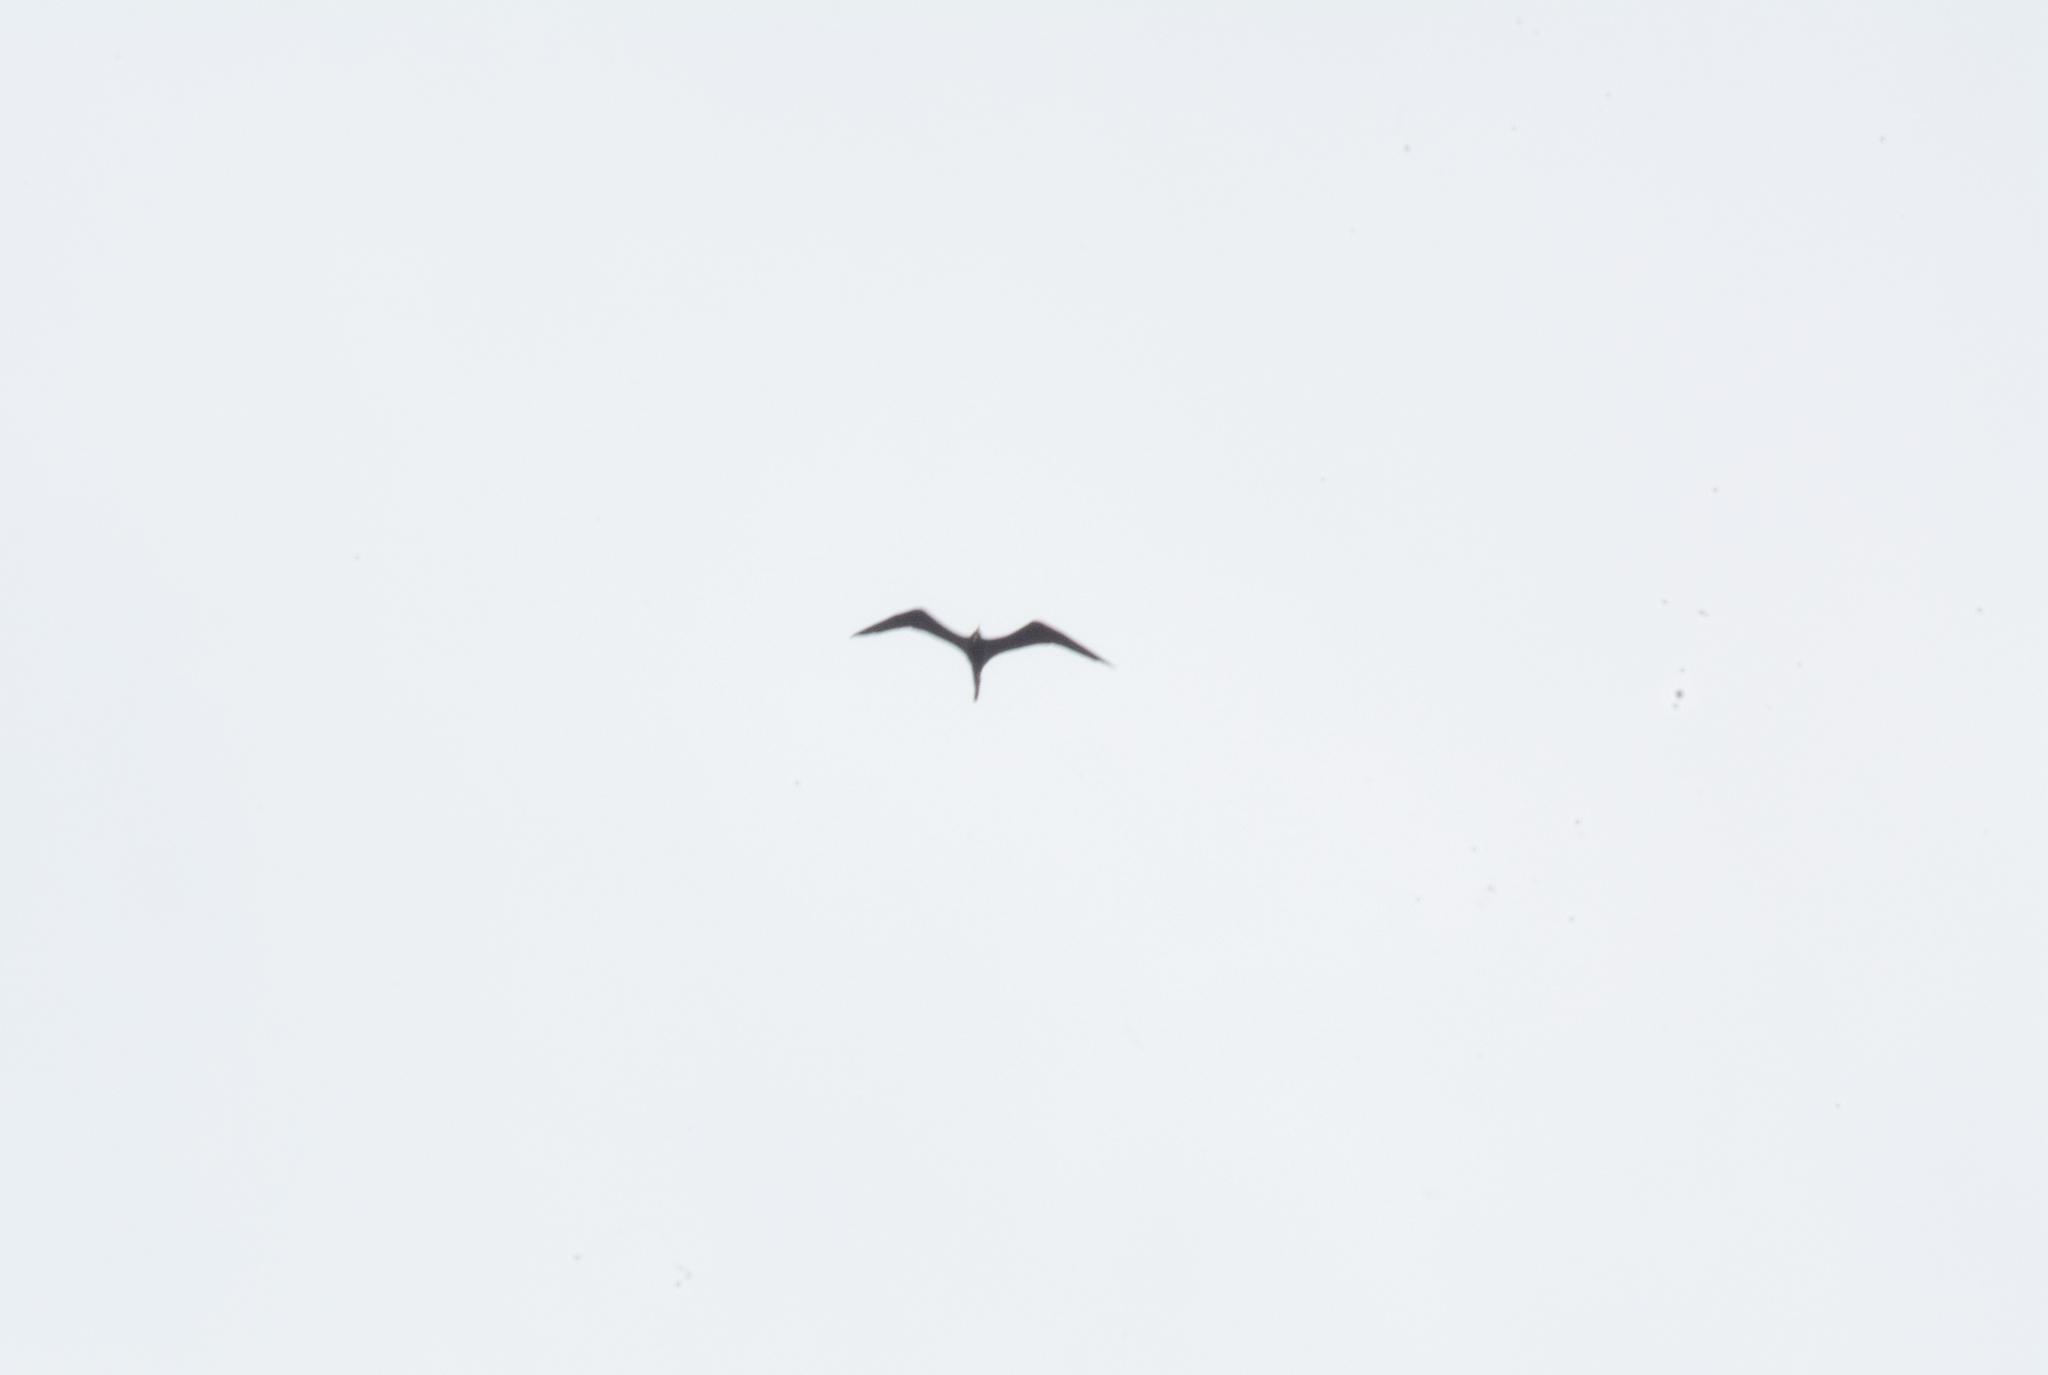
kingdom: Animalia
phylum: Chordata
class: Aves
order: Suliformes
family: Fregatidae
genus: Fregata
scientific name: Fregata magnificens
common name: Magnificent frigatebird
